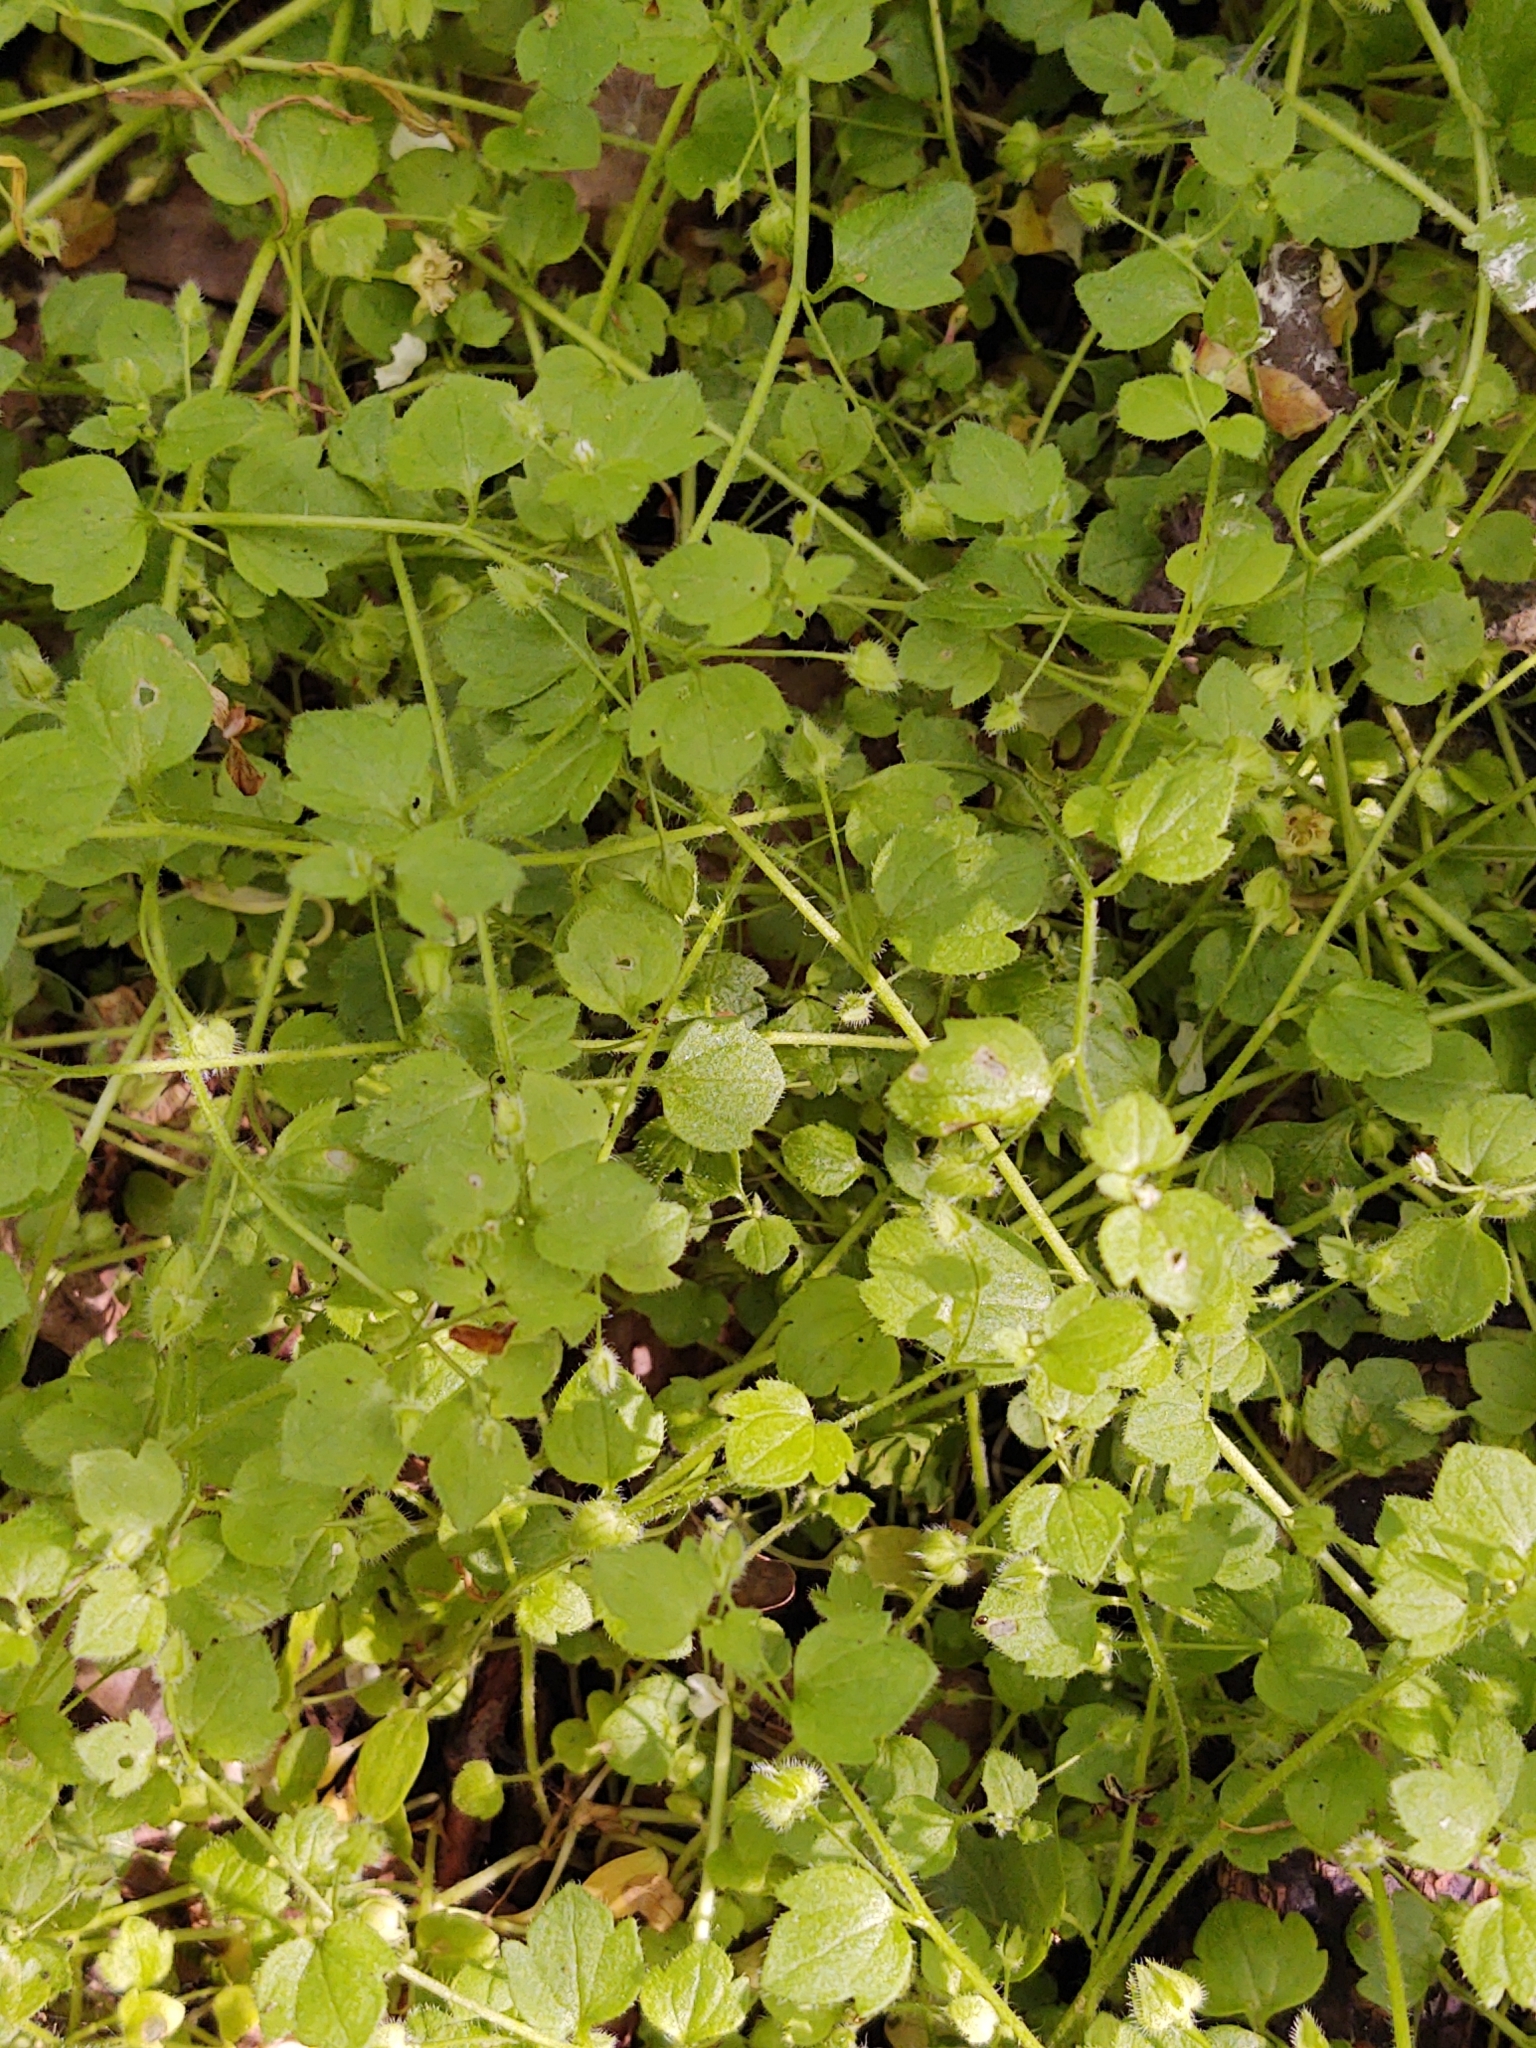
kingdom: Plantae
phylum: Tracheophyta
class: Magnoliopsida
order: Lamiales
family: Plantaginaceae
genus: Veronica
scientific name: Veronica sublobata
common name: False ivy-leaved speedwell
